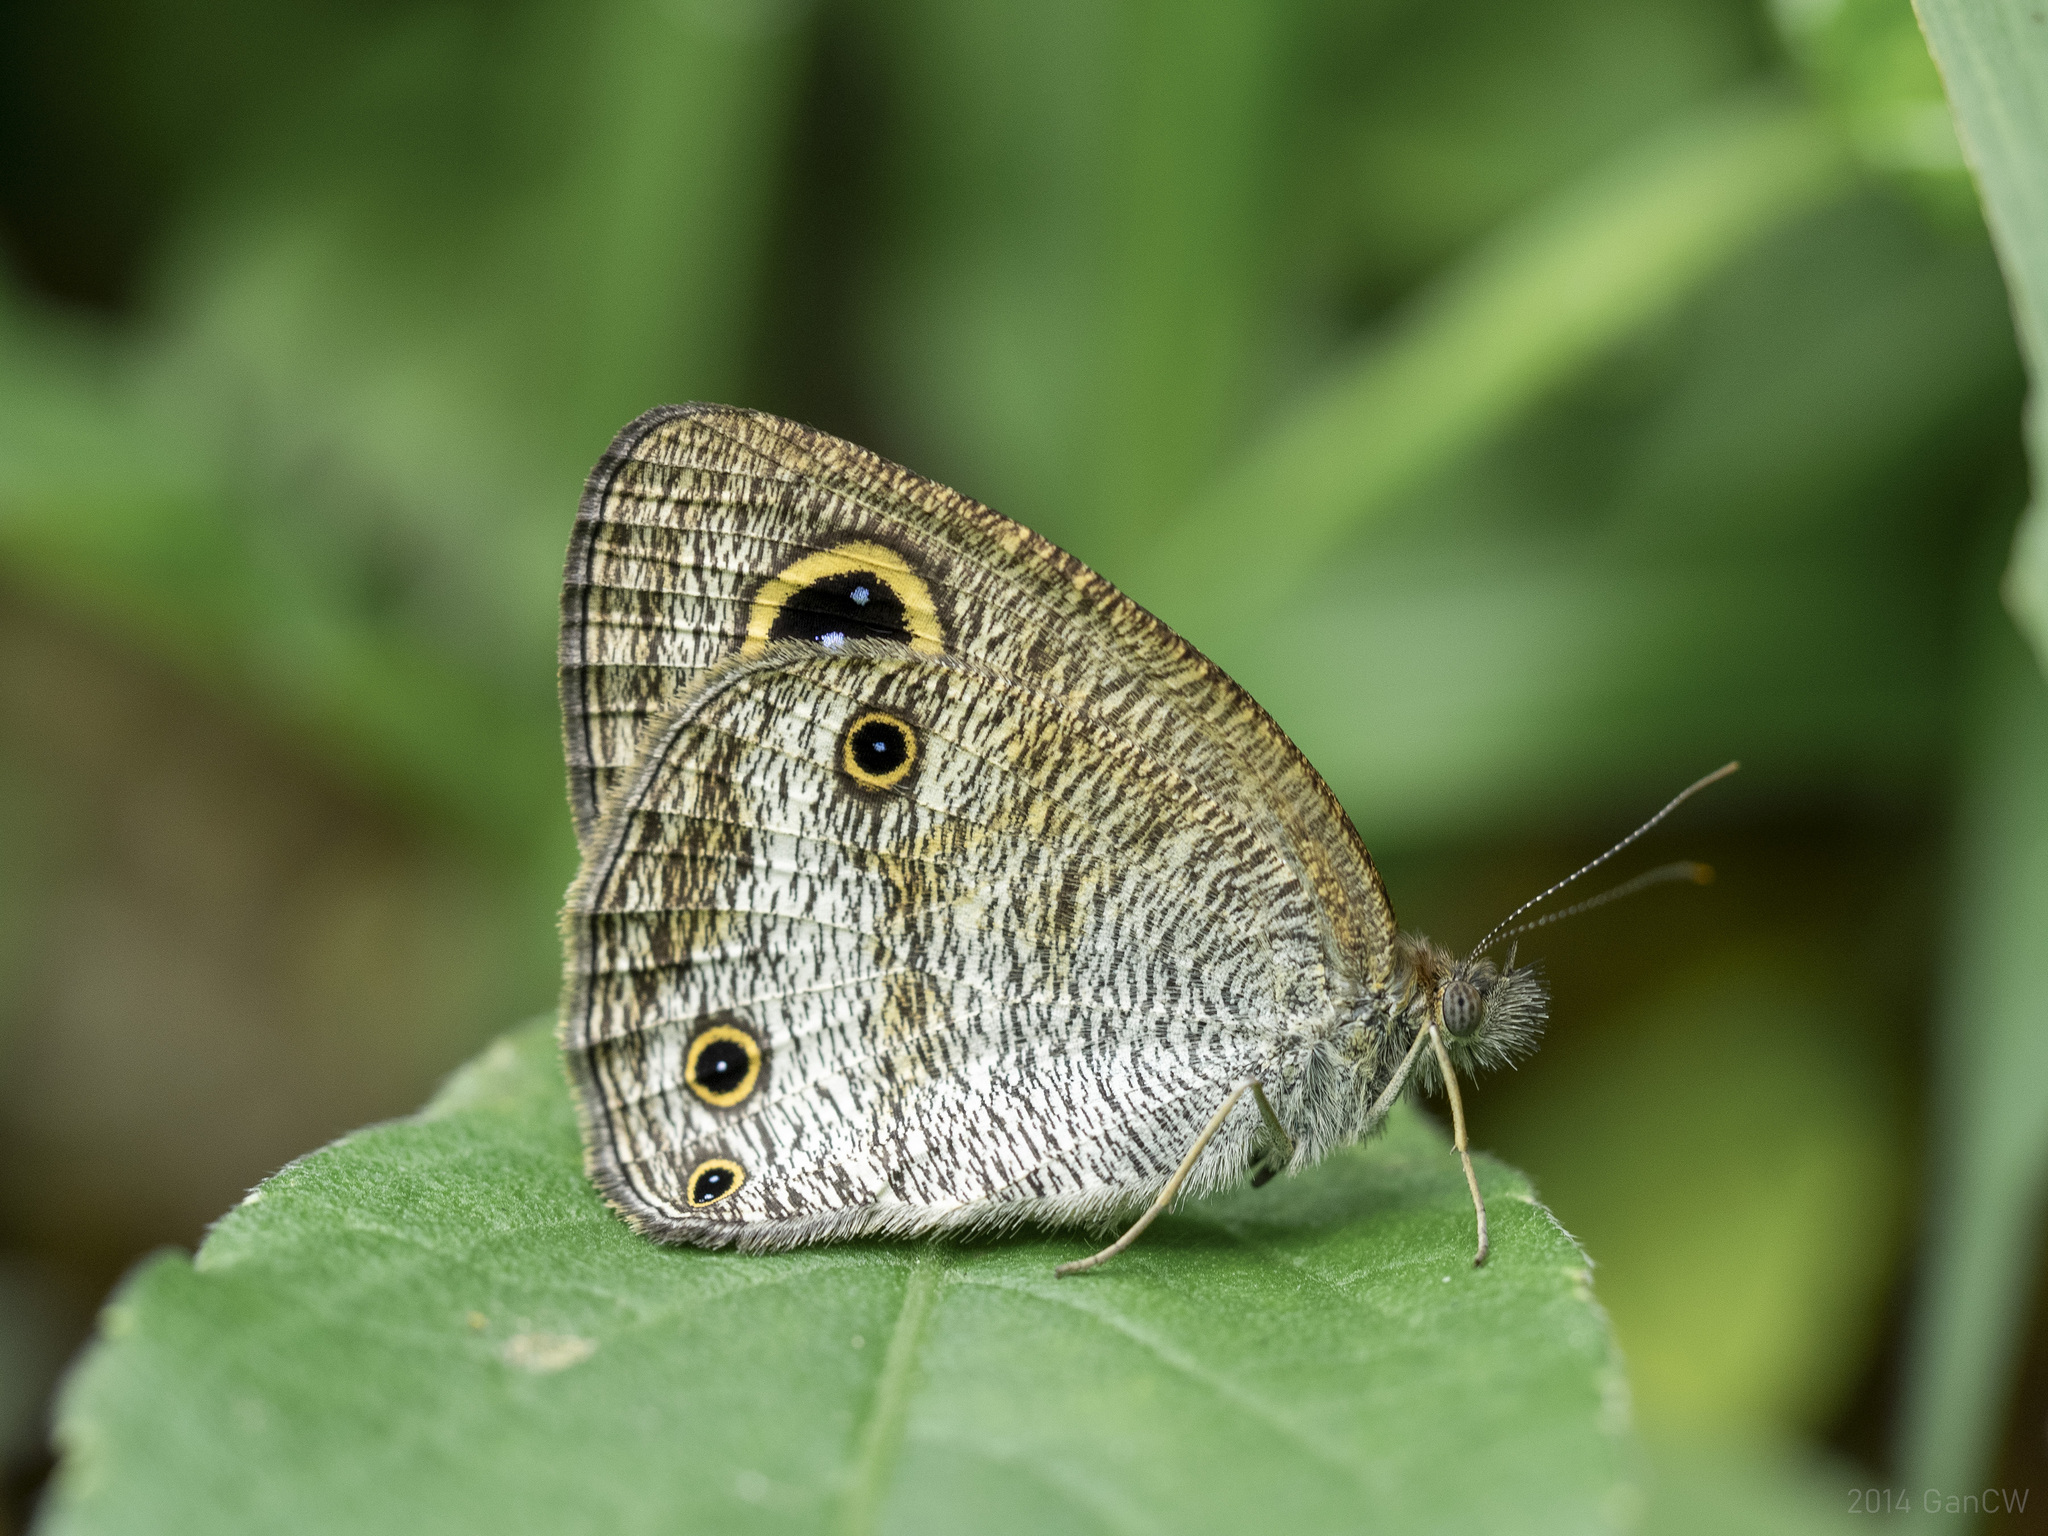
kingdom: Animalia
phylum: Arthropoda
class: Insecta
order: Lepidoptera
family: Nymphalidae
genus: Ypthima
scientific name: Ypthima pandocus
